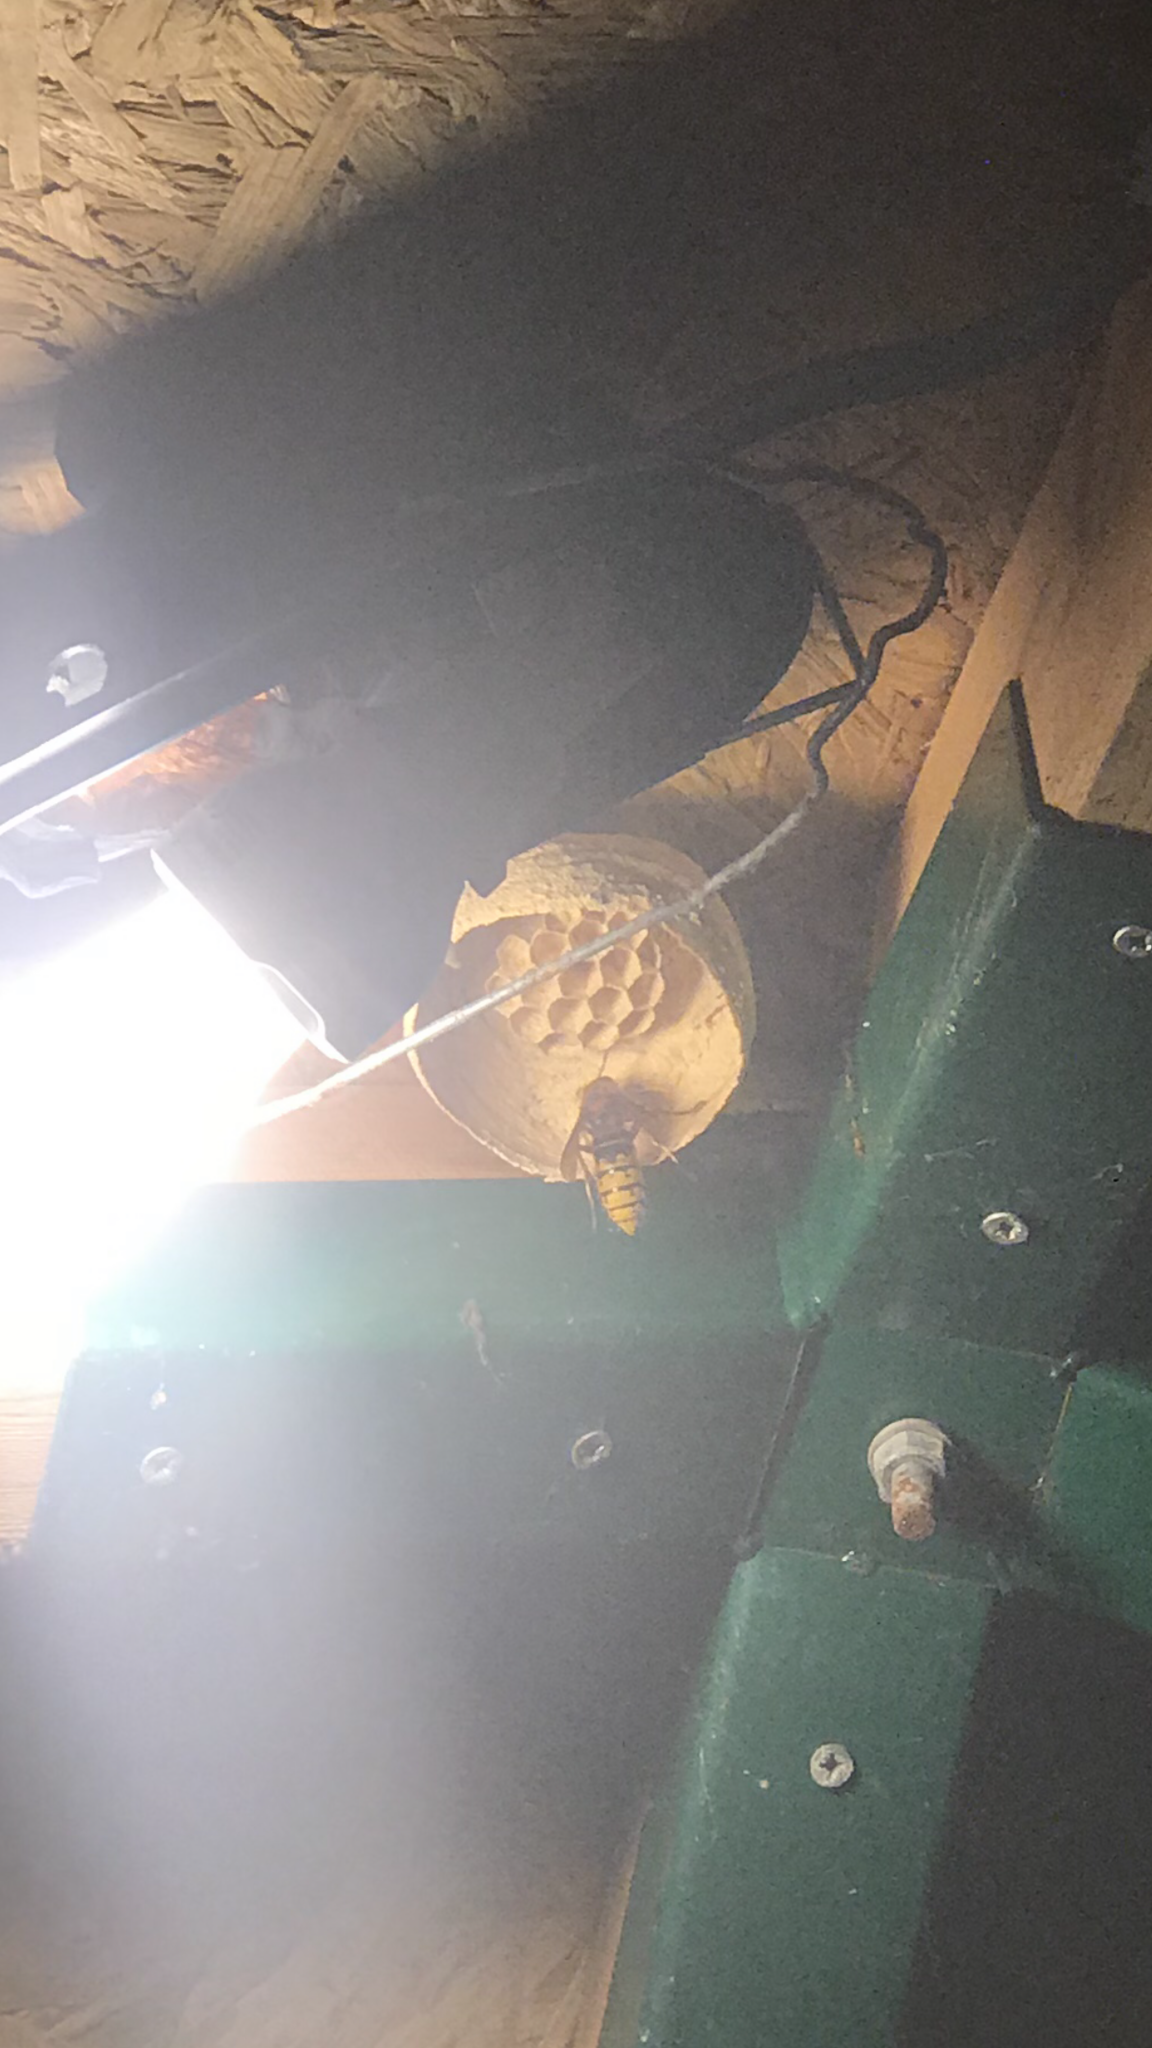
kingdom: Animalia
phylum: Arthropoda
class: Insecta
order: Hymenoptera
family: Vespidae
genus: Vespa
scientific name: Vespa crabro
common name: Hornet
